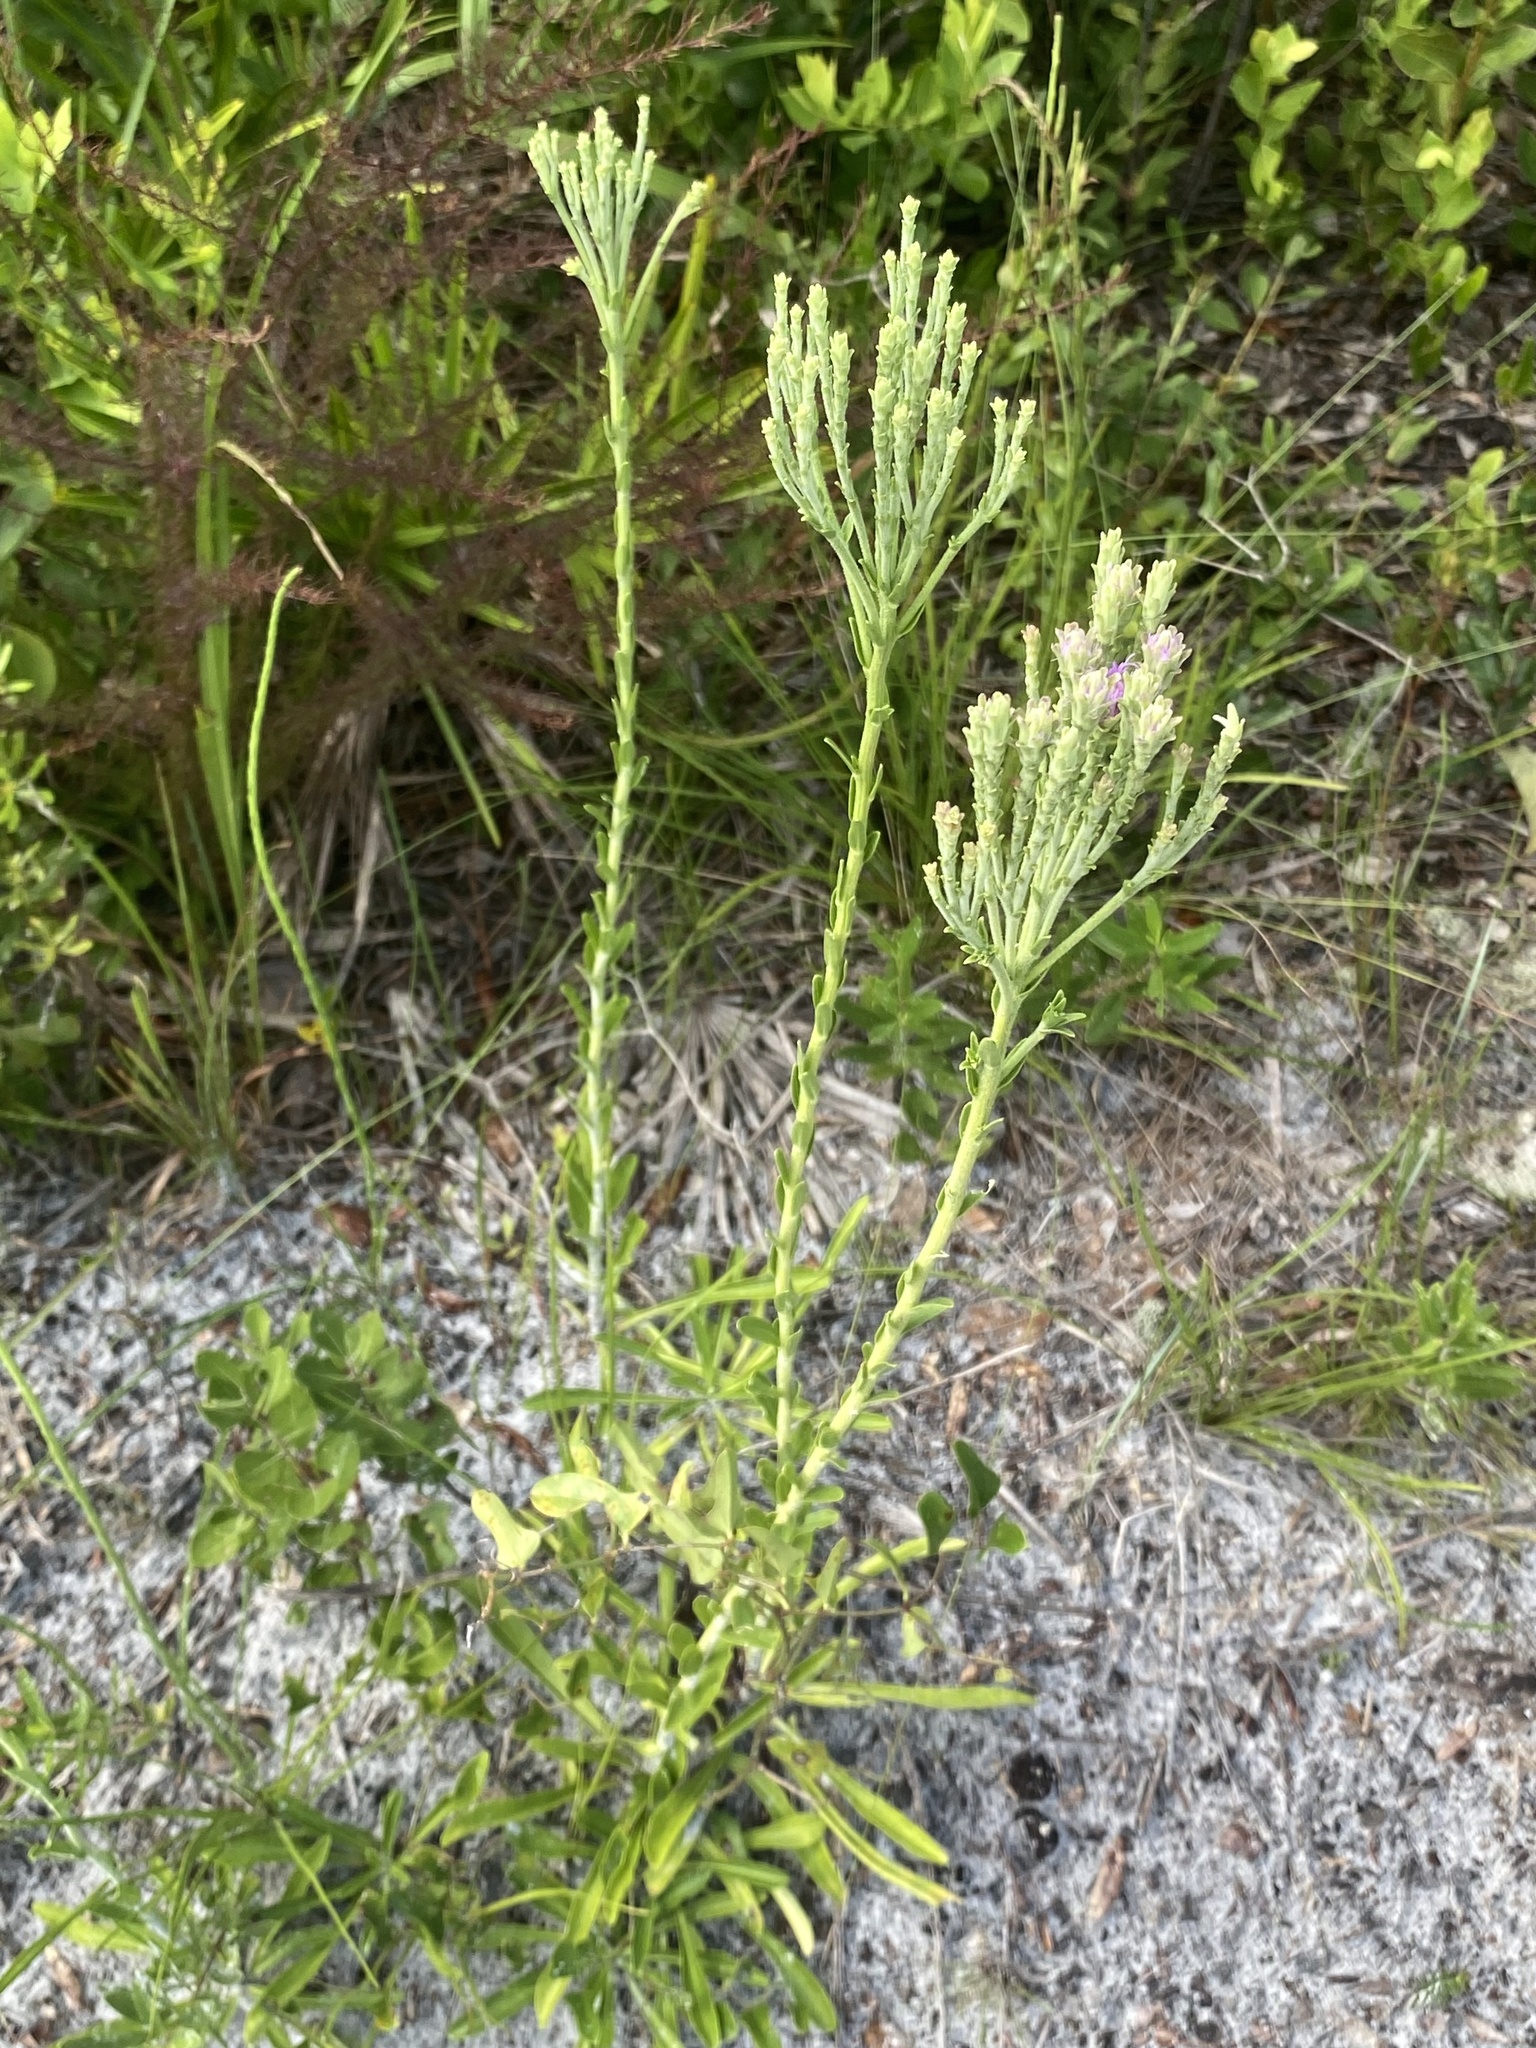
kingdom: Plantae
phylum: Tracheophyta
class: Magnoliopsida
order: Asterales
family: Asteraceae
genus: Carphephorus
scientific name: Carphephorus corymbosus
